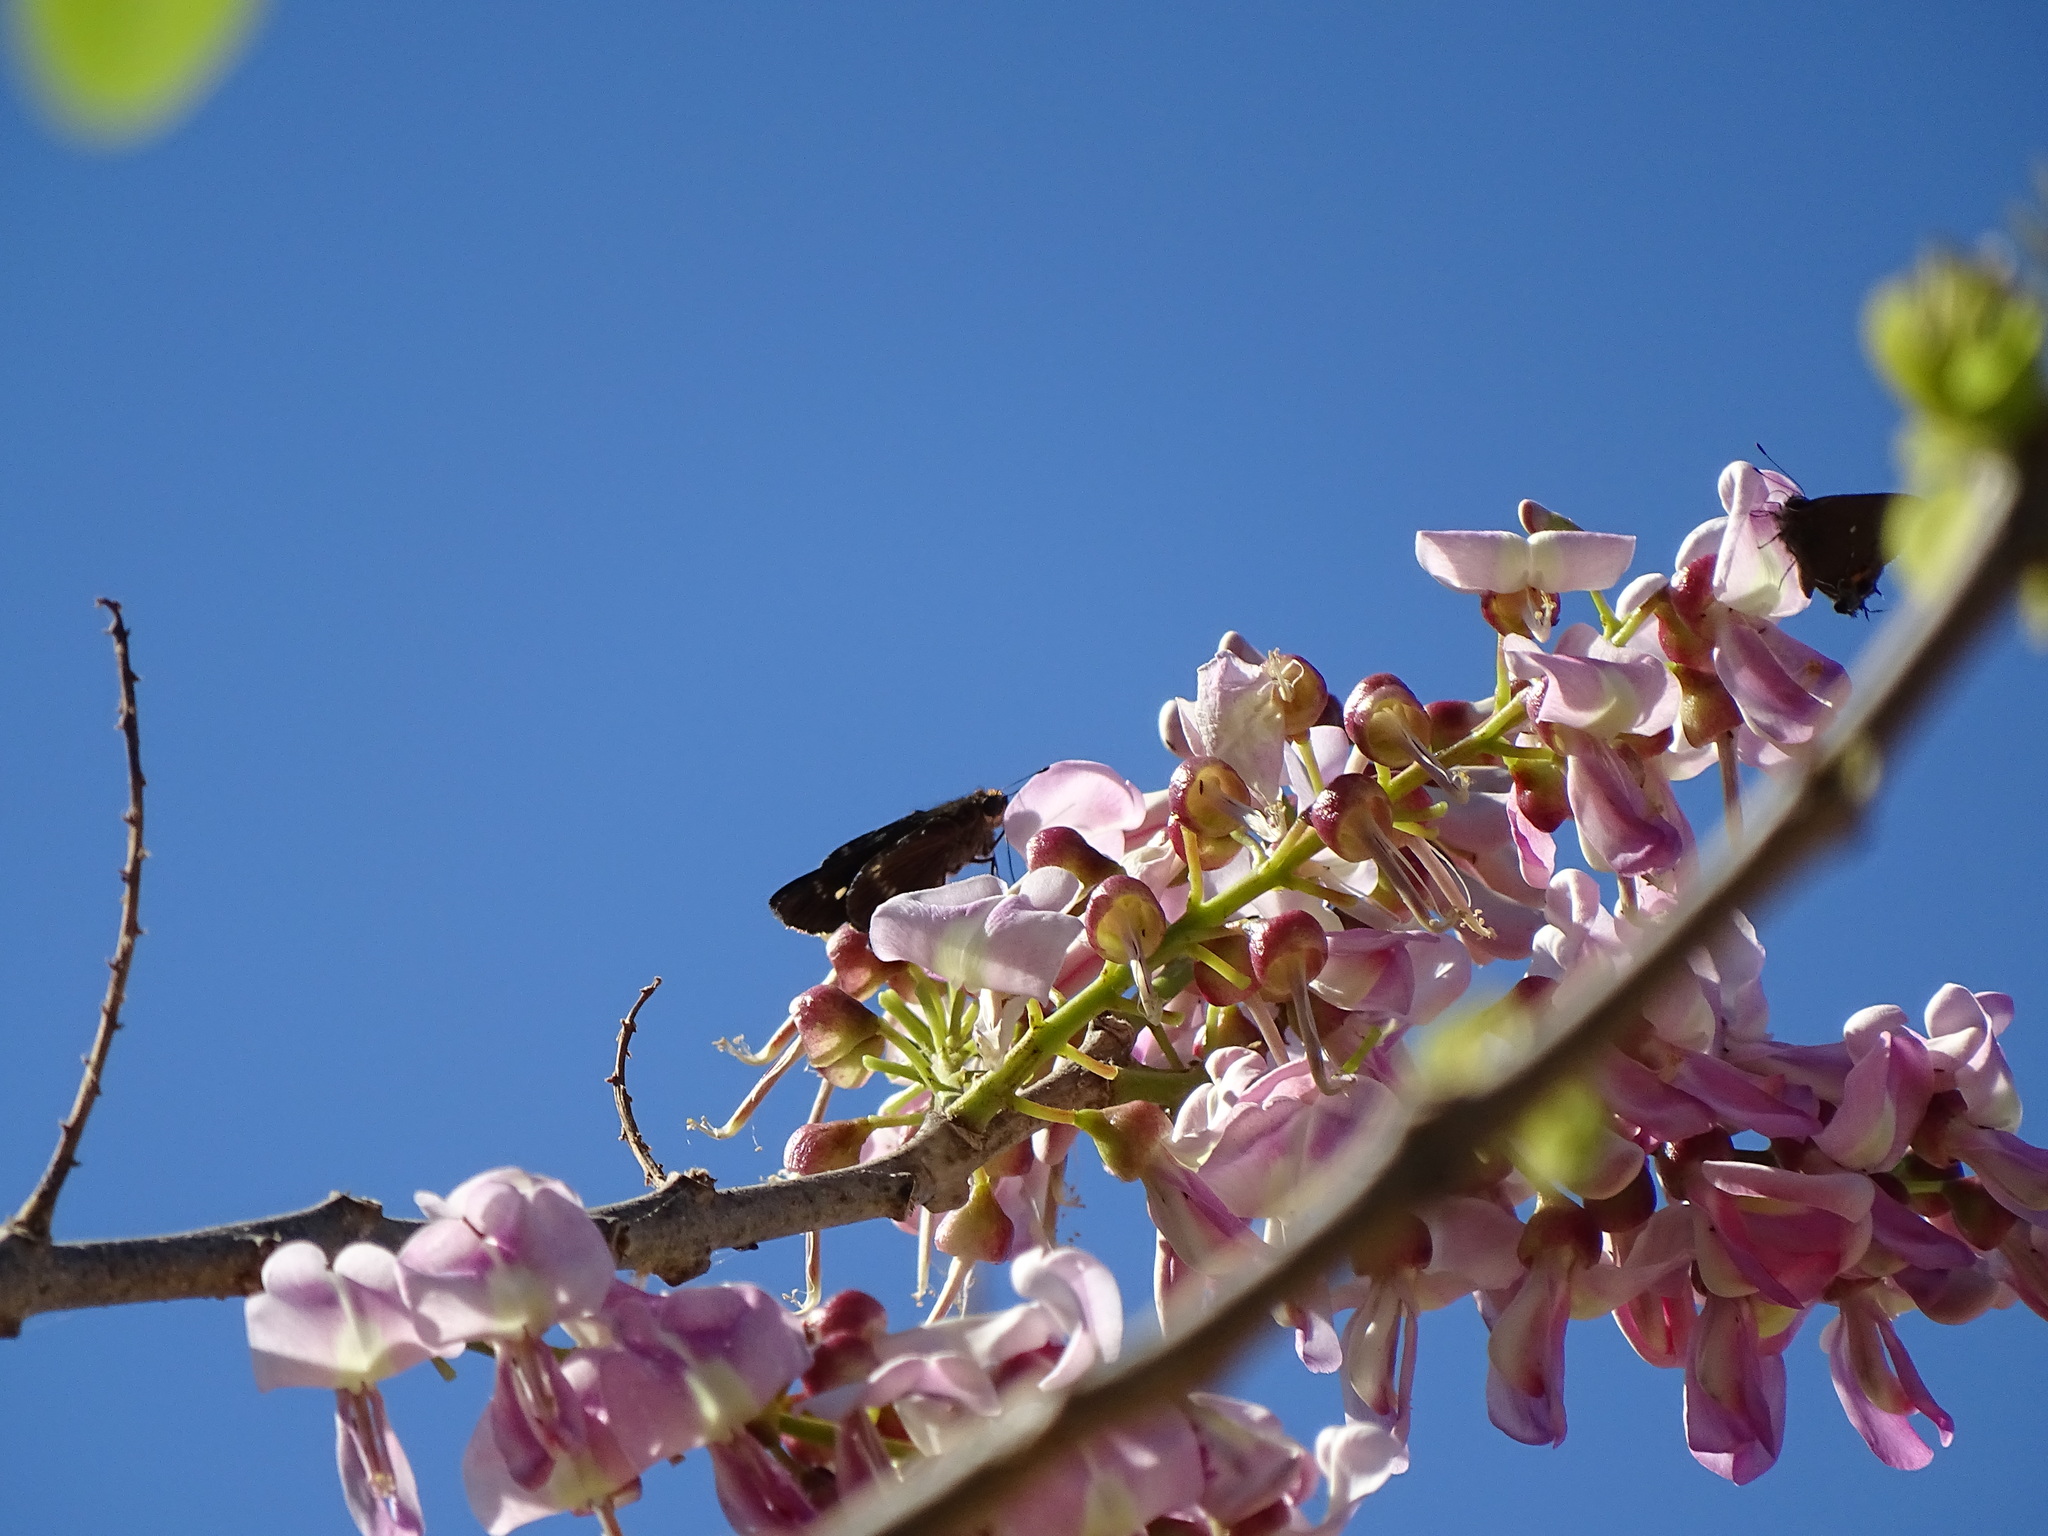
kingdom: Animalia
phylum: Arthropoda
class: Insecta
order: Lepidoptera
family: Hesperiidae
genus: Turesis
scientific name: Turesis lucas
